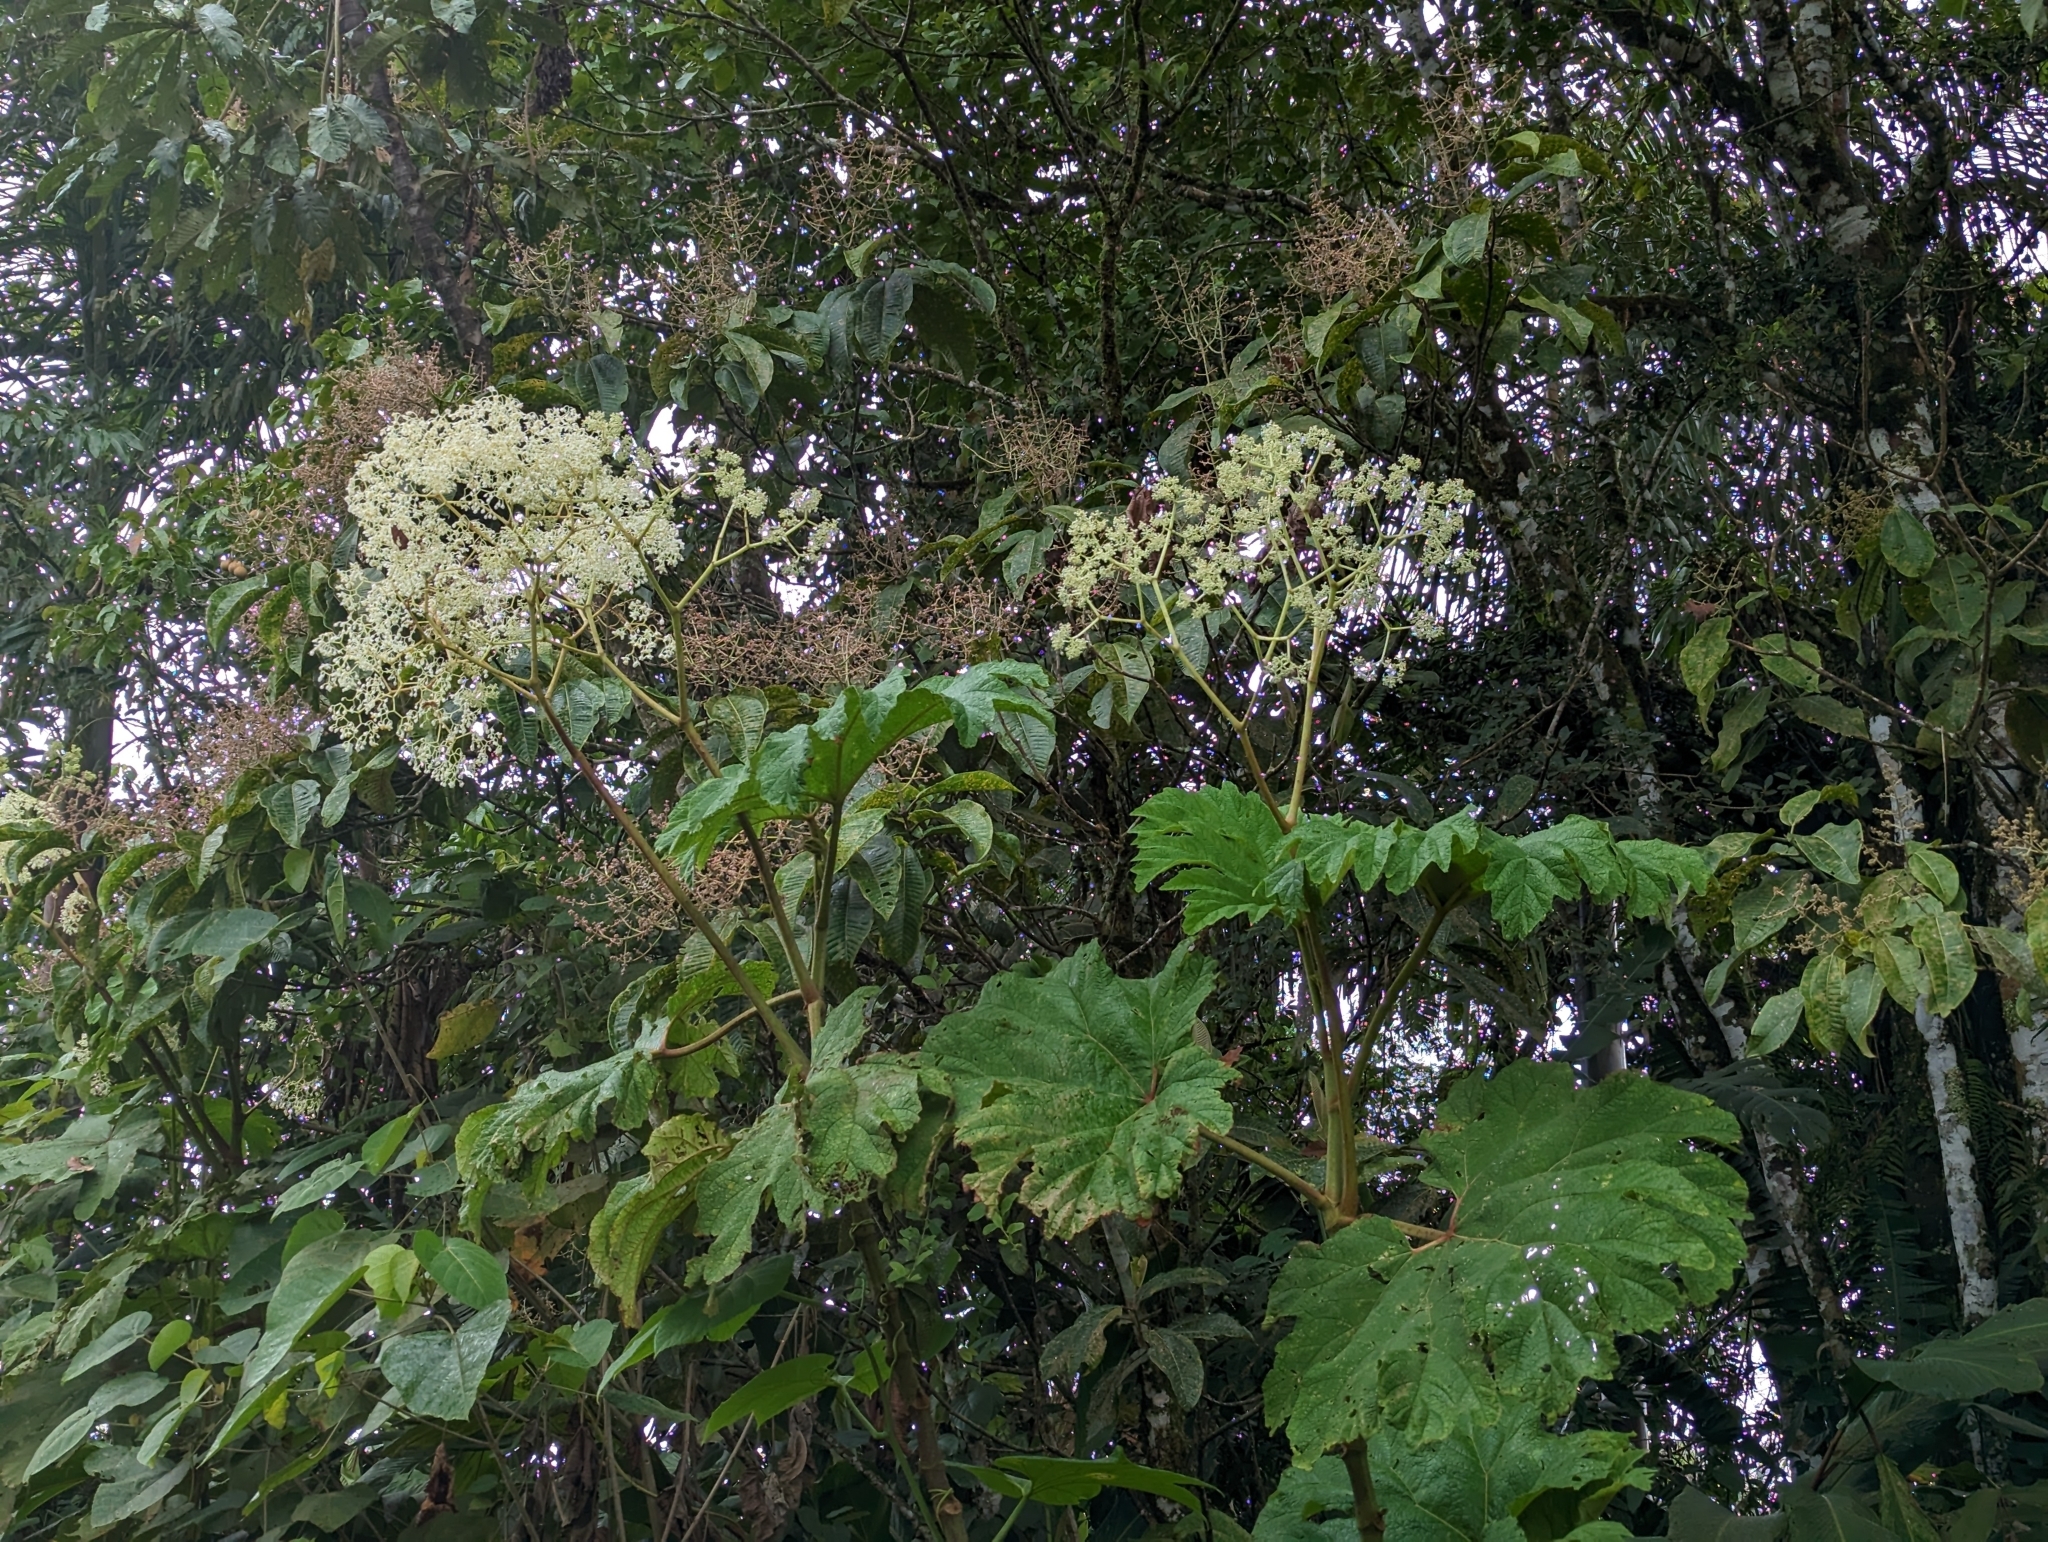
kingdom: Plantae
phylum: Tracheophyta
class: Magnoliopsida
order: Cucurbitales
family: Begoniaceae
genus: Begonia
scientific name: Begonia parviflora
